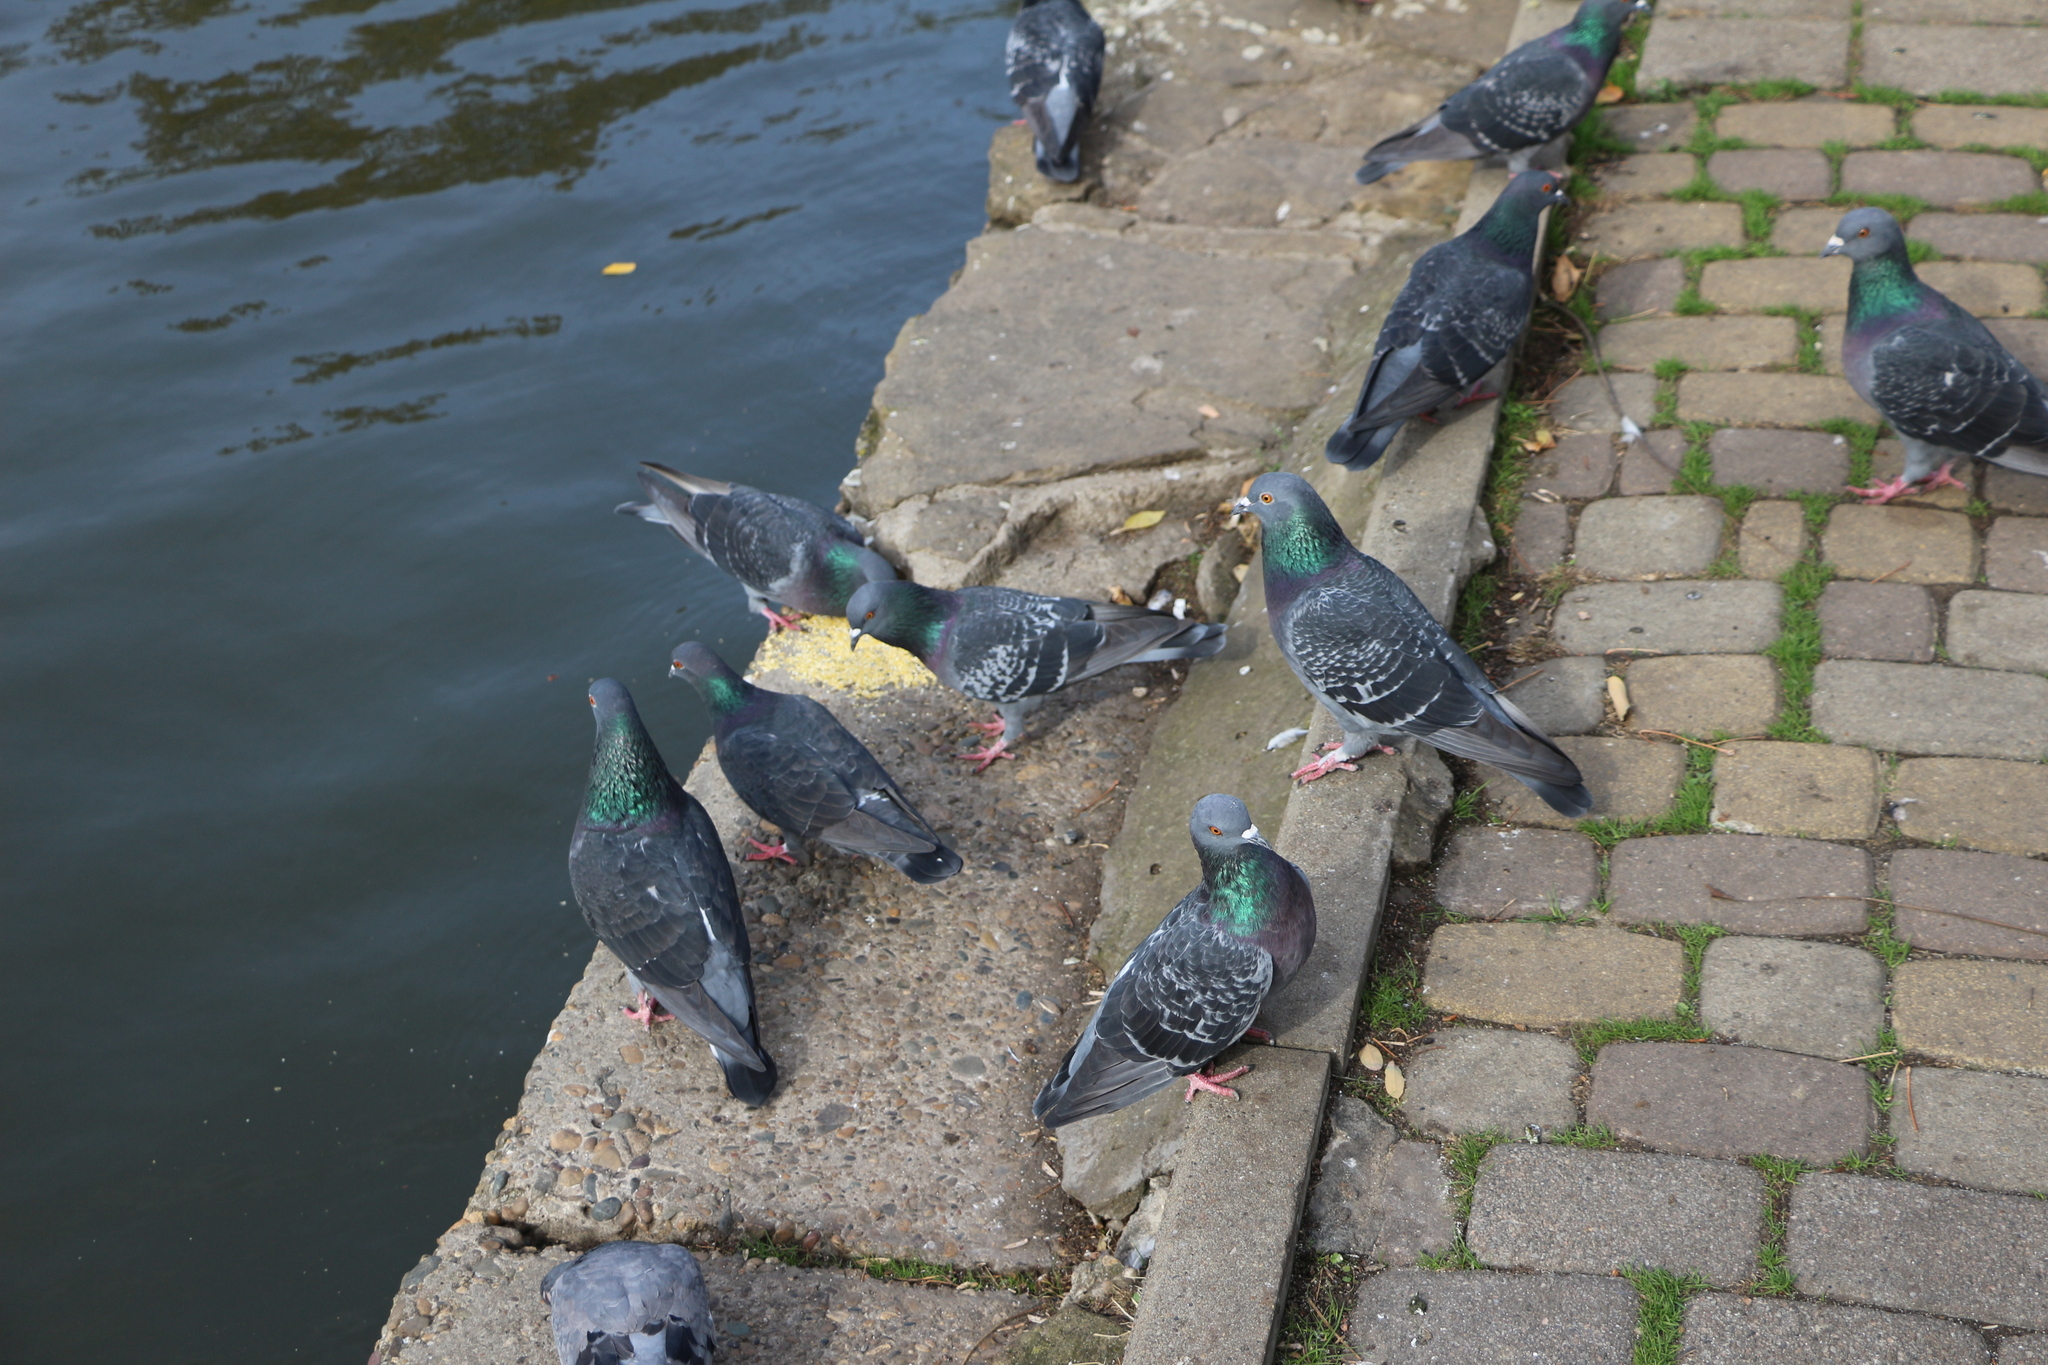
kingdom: Animalia
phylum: Chordata
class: Aves
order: Columbiformes
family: Columbidae
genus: Columba
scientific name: Columba livia
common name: Rock pigeon
